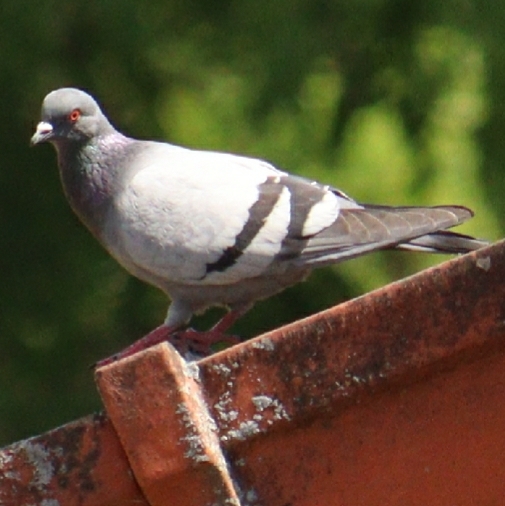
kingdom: Animalia
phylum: Chordata
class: Aves
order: Columbiformes
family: Columbidae
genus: Columba
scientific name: Columba livia
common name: Rock pigeon
